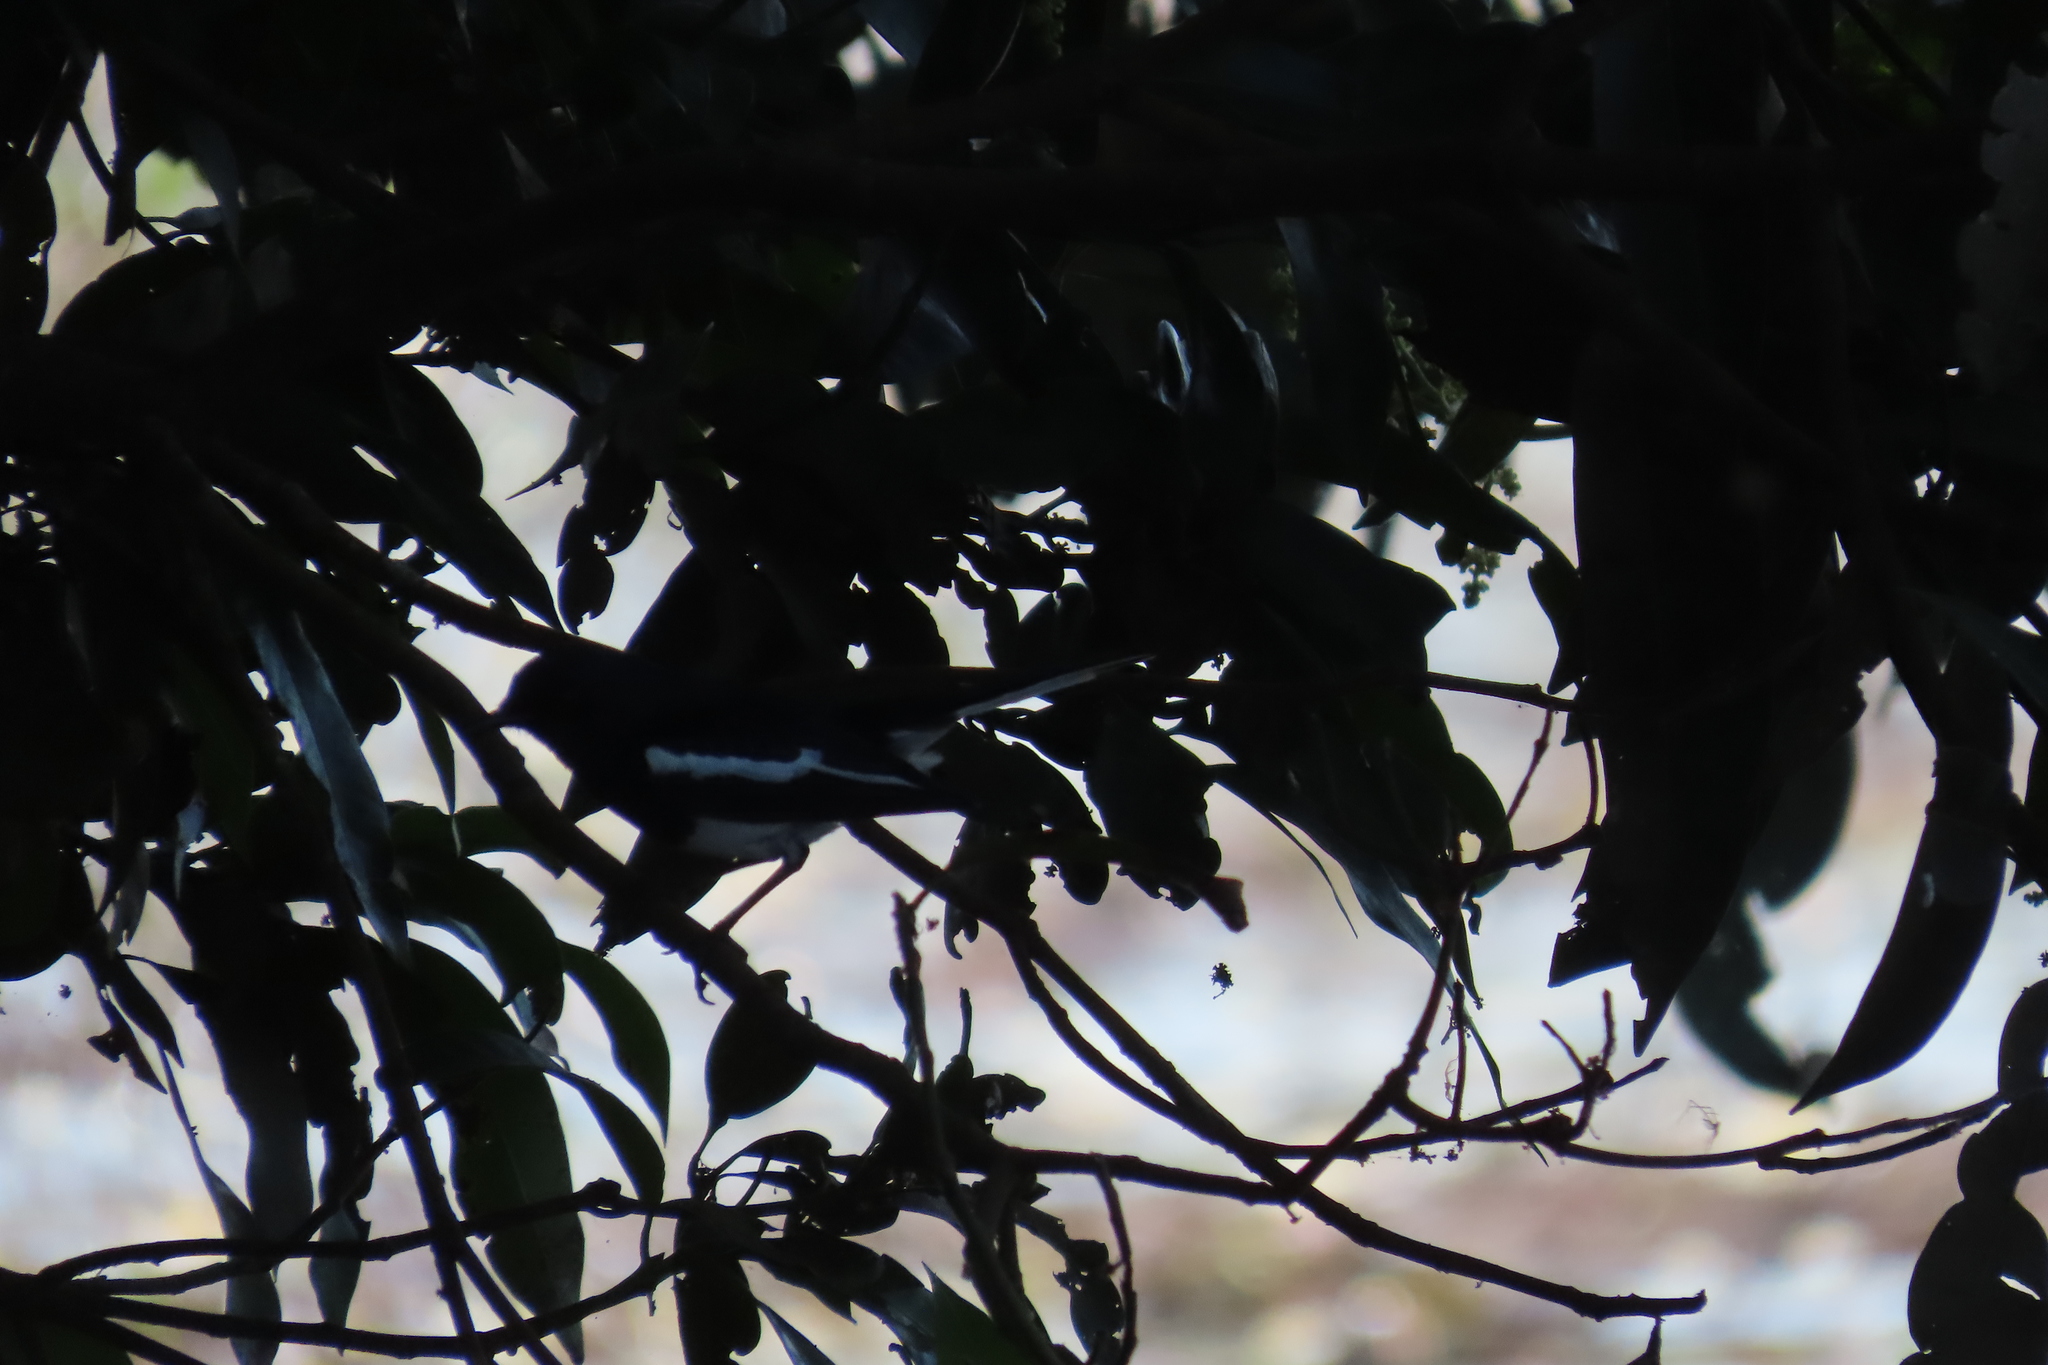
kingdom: Animalia
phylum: Chordata
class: Aves
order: Passeriformes
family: Muscicapidae
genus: Copsychus
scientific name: Copsychus saularis
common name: Oriental magpie-robin
